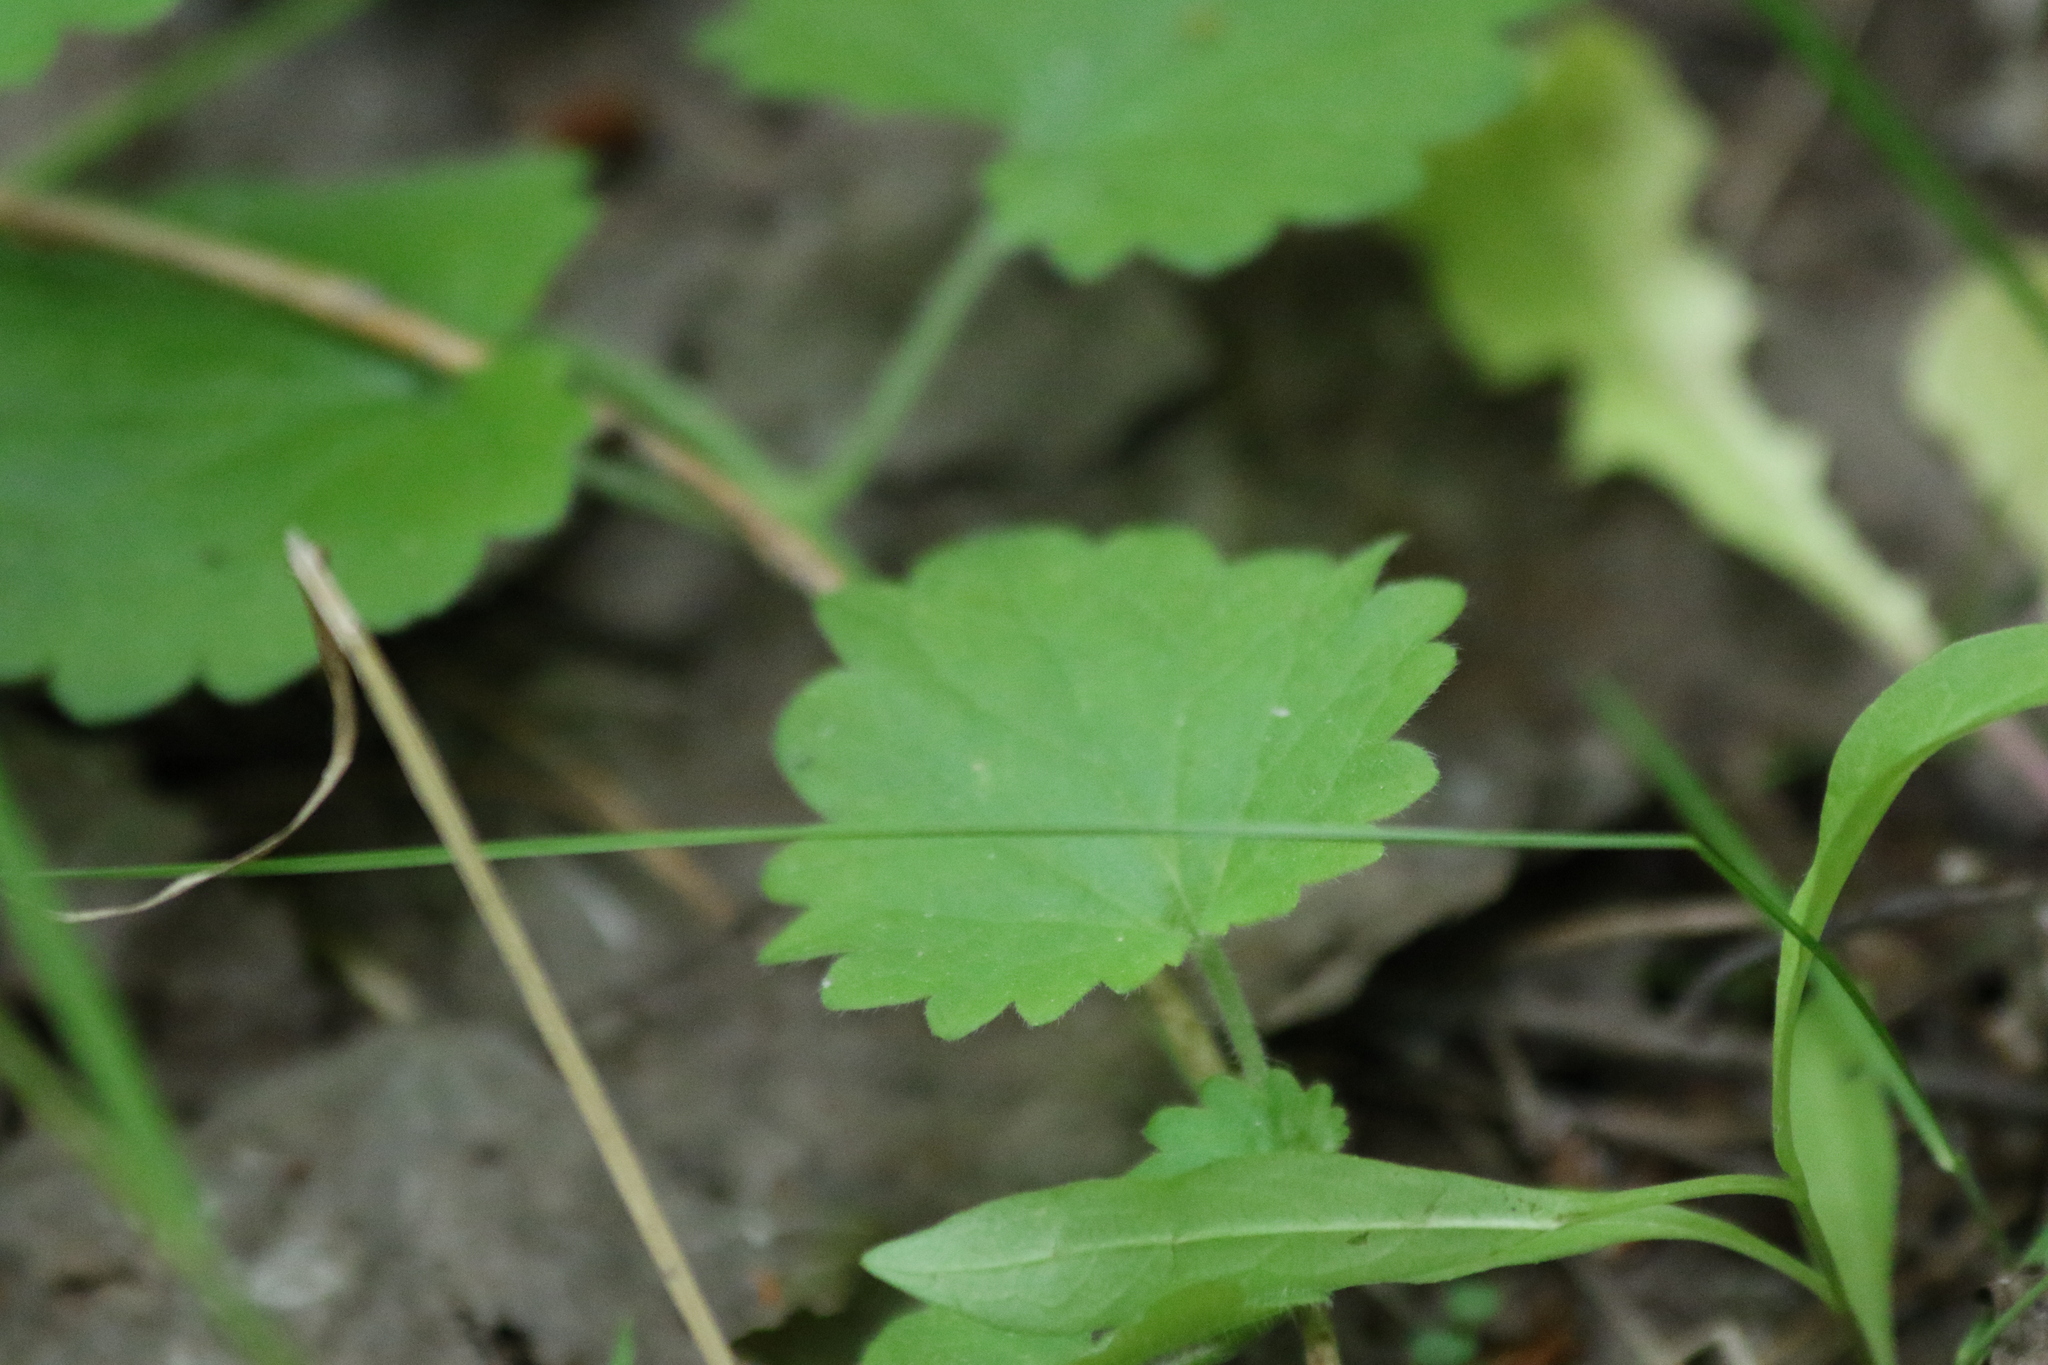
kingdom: Plantae
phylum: Tracheophyta
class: Magnoliopsida
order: Lamiales
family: Lamiaceae
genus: Glechoma
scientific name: Glechoma hederacea
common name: Ground ivy
